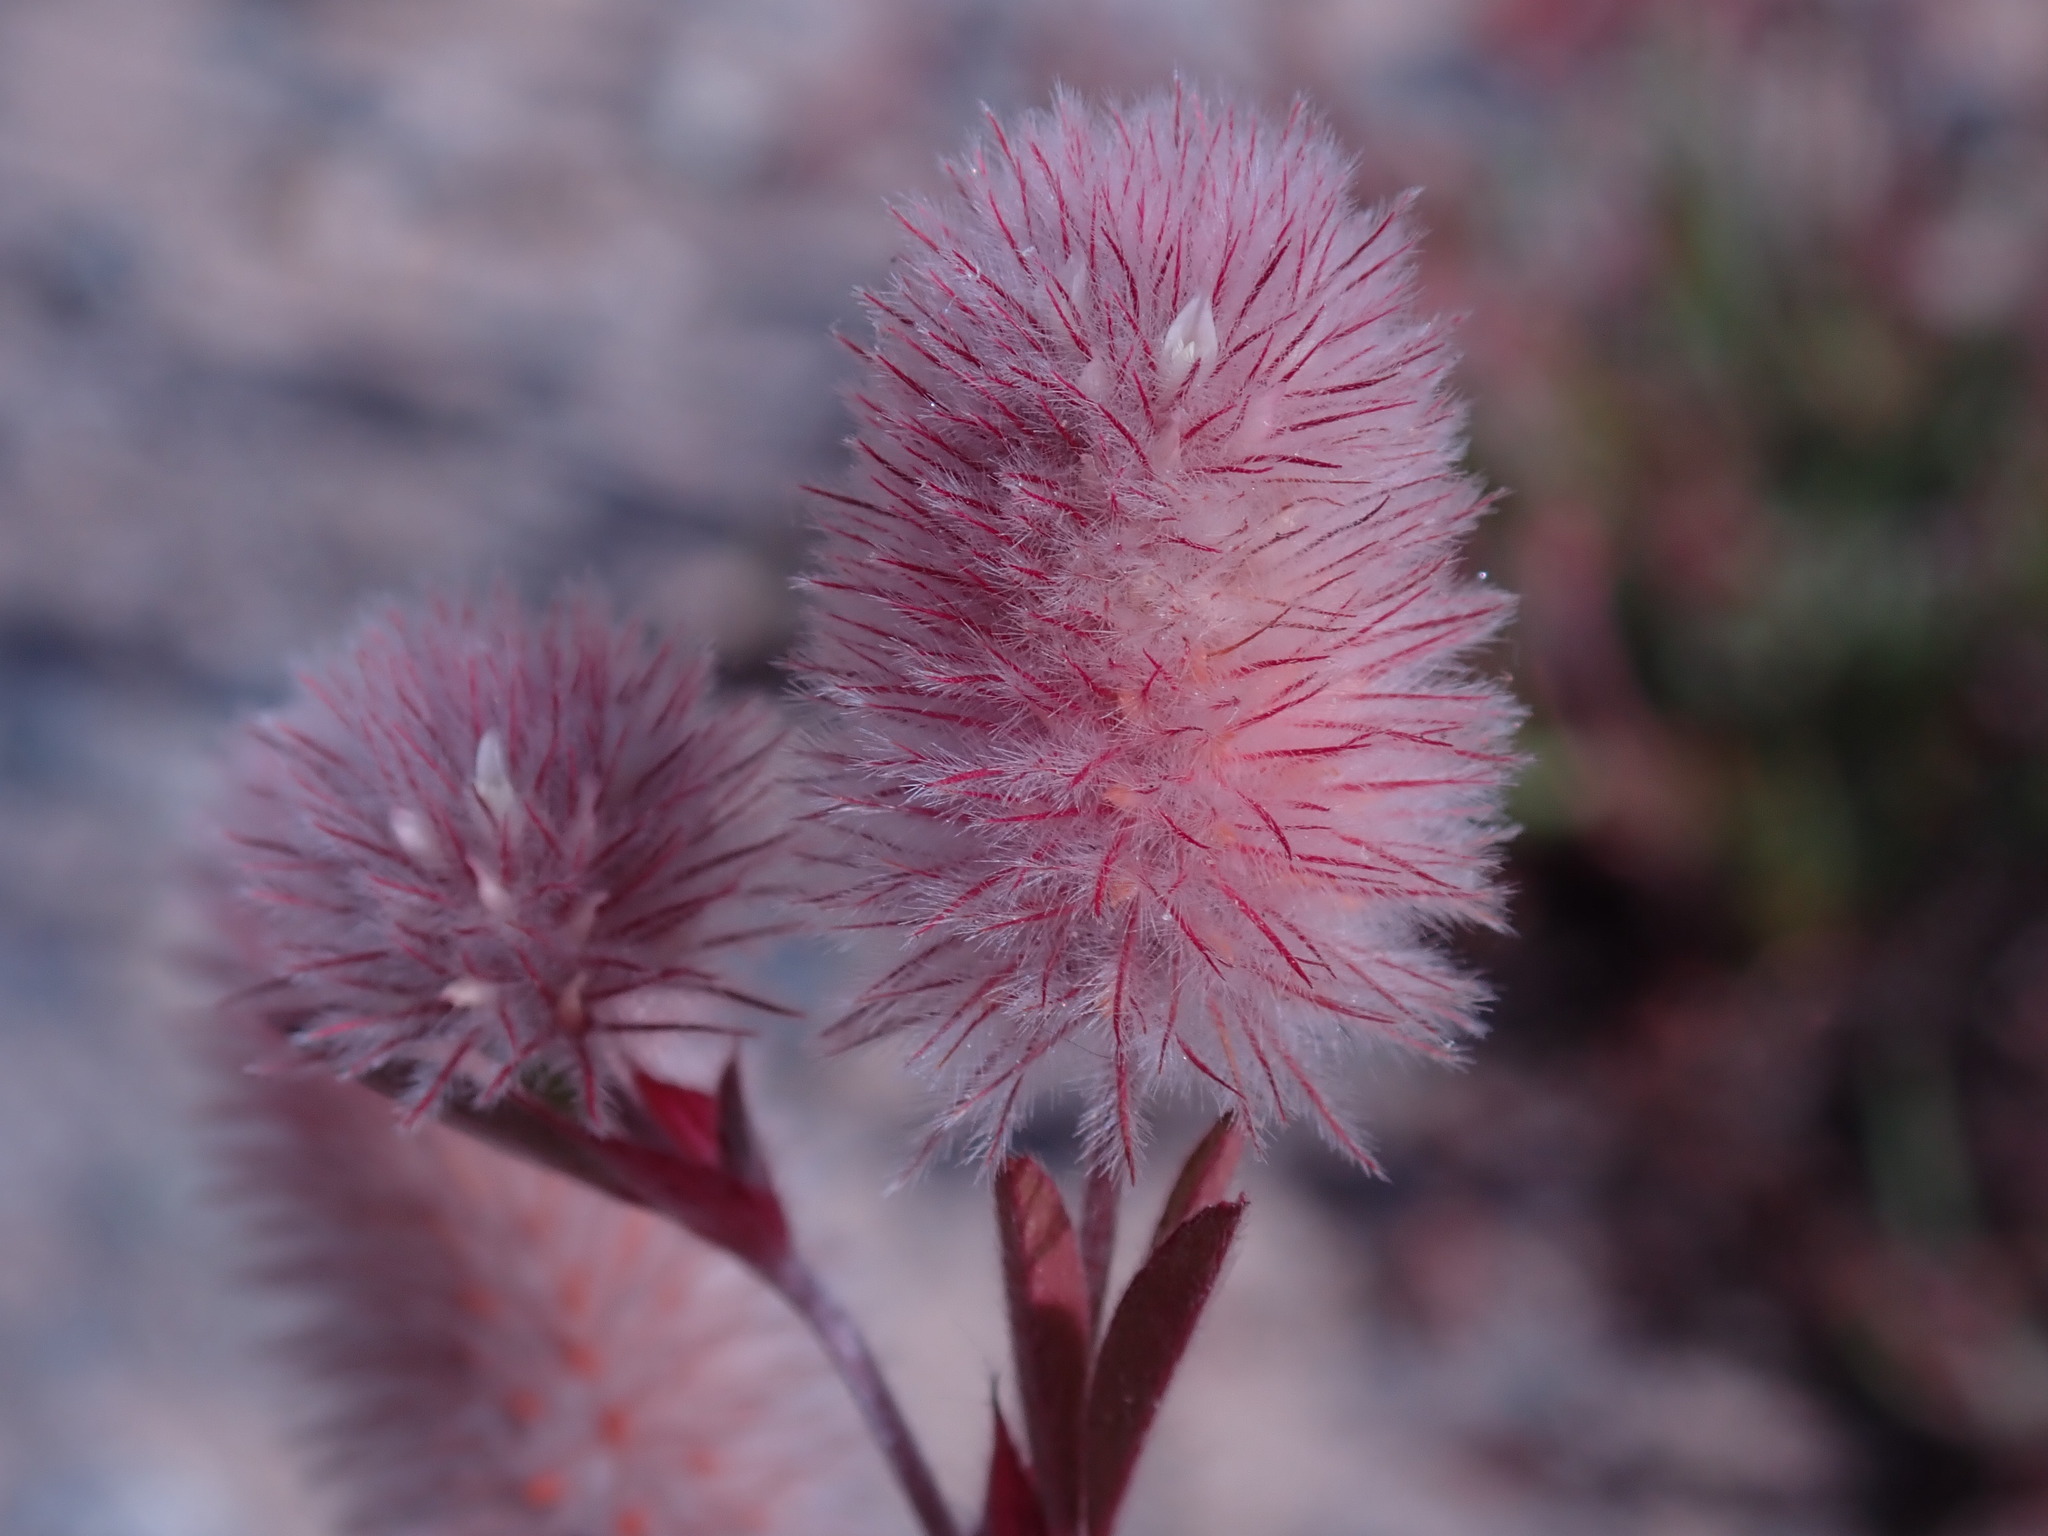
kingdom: Plantae
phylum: Tracheophyta
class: Magnoliopsida
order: Fabales
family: Fabaceae
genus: Trifolium
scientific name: Trifolium arvense
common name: Hare's-foot clover
